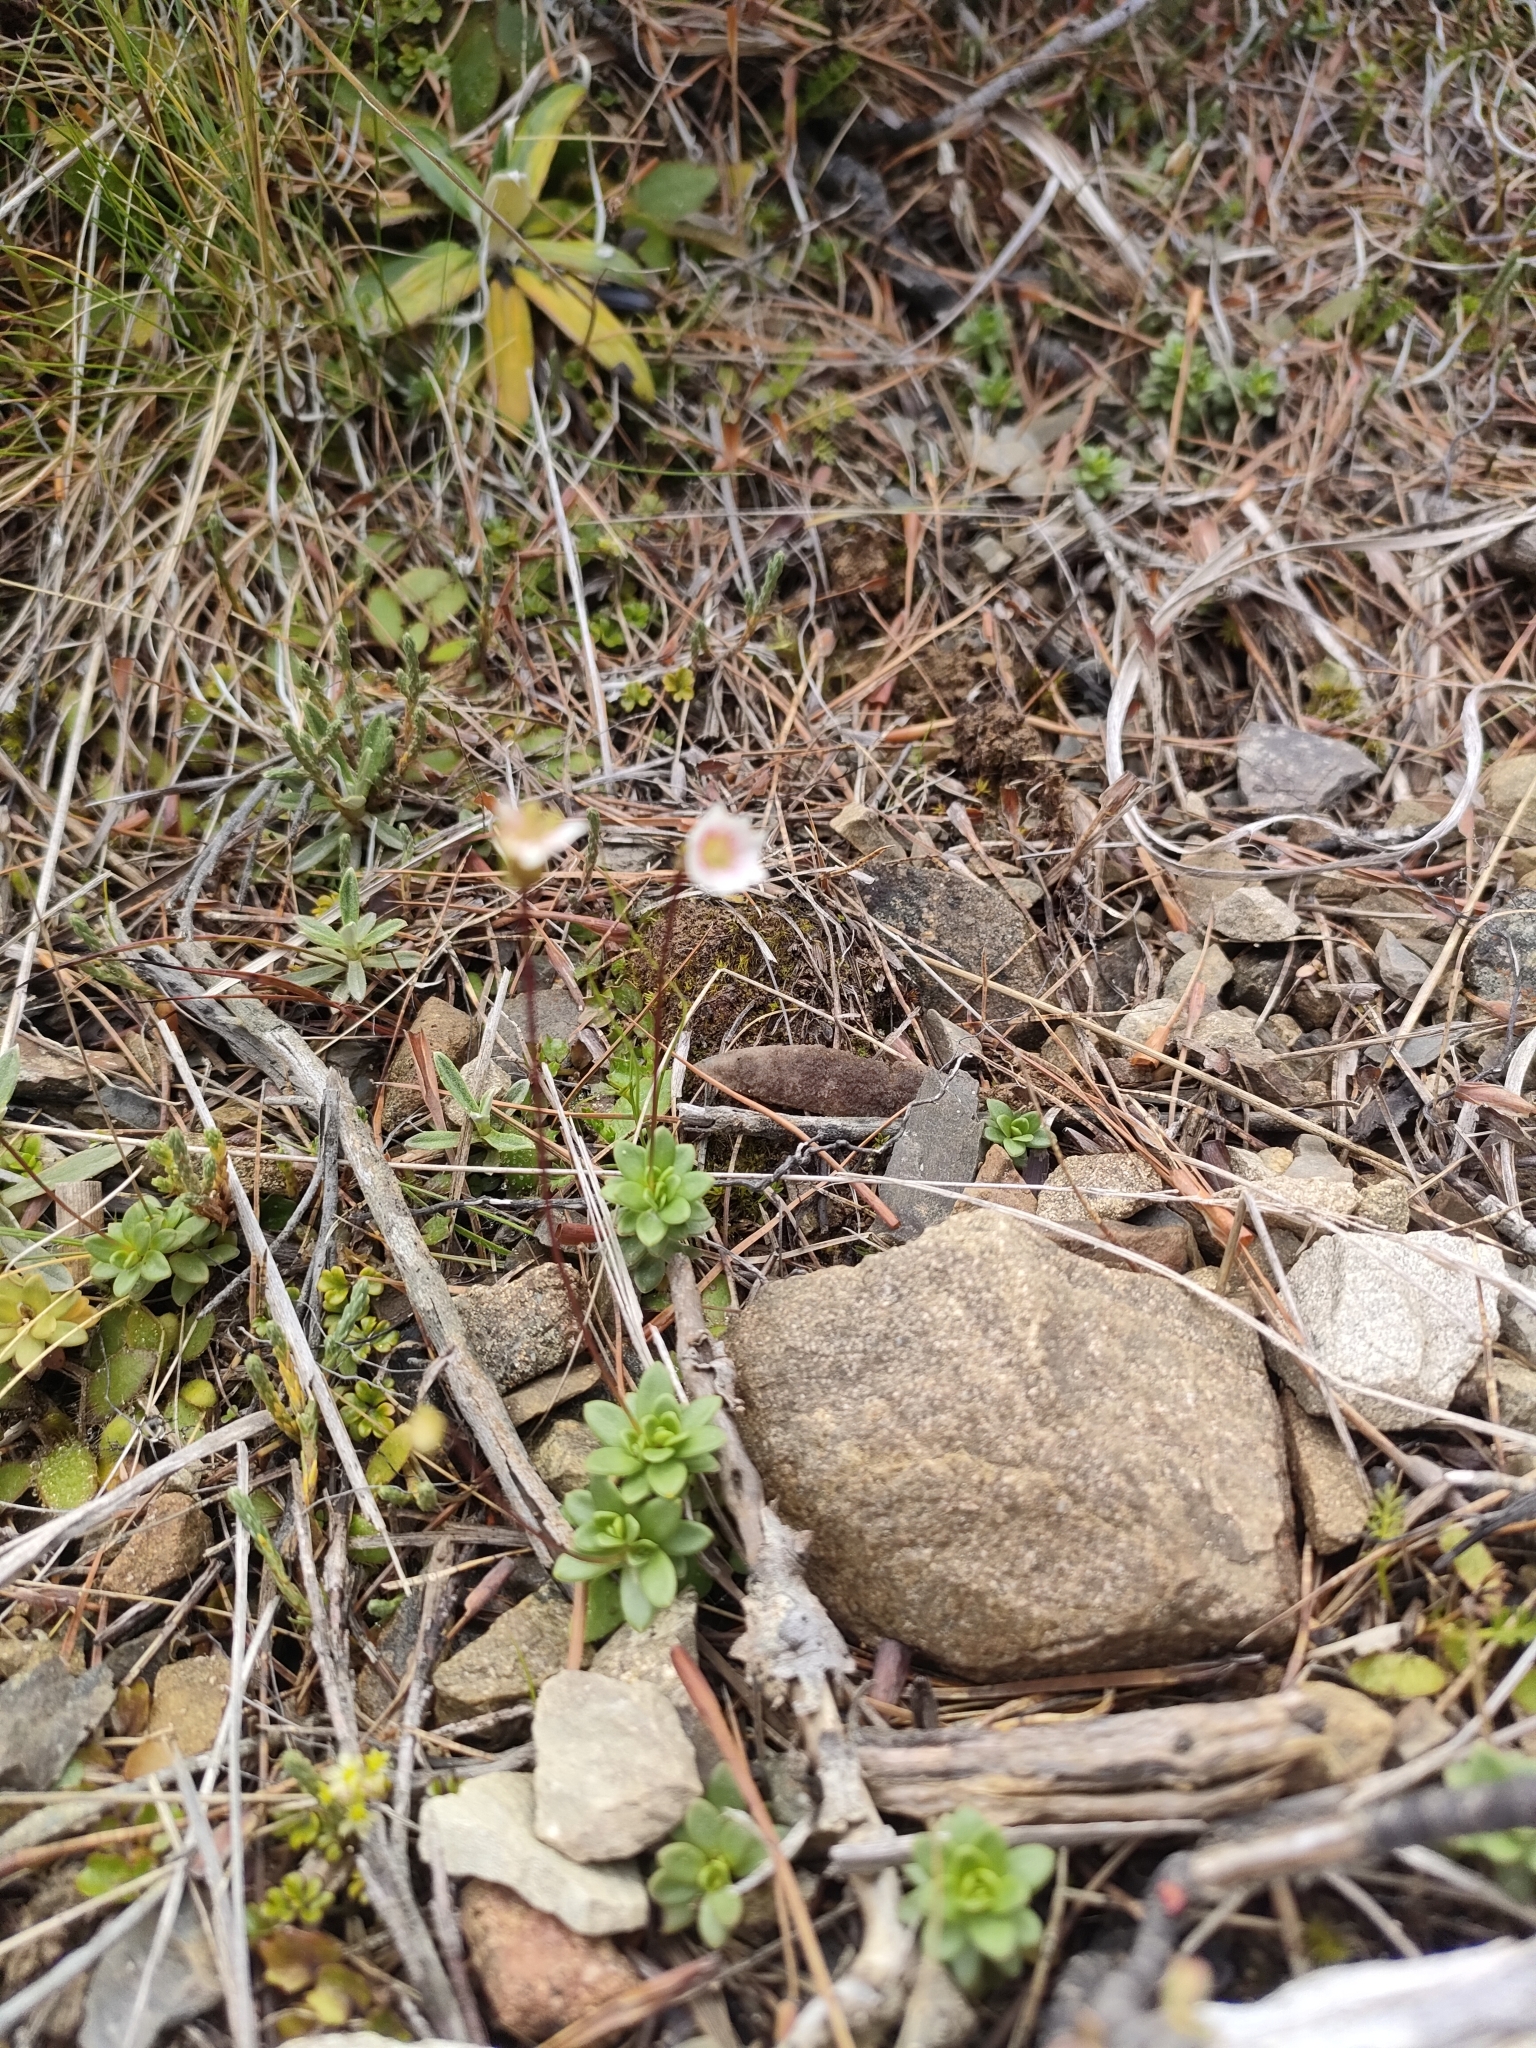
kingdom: Plantae
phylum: Tracheophyta
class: Magnoliopsida
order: Asterales
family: Stylidiaceae
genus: Forstera
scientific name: Forstera tenella
